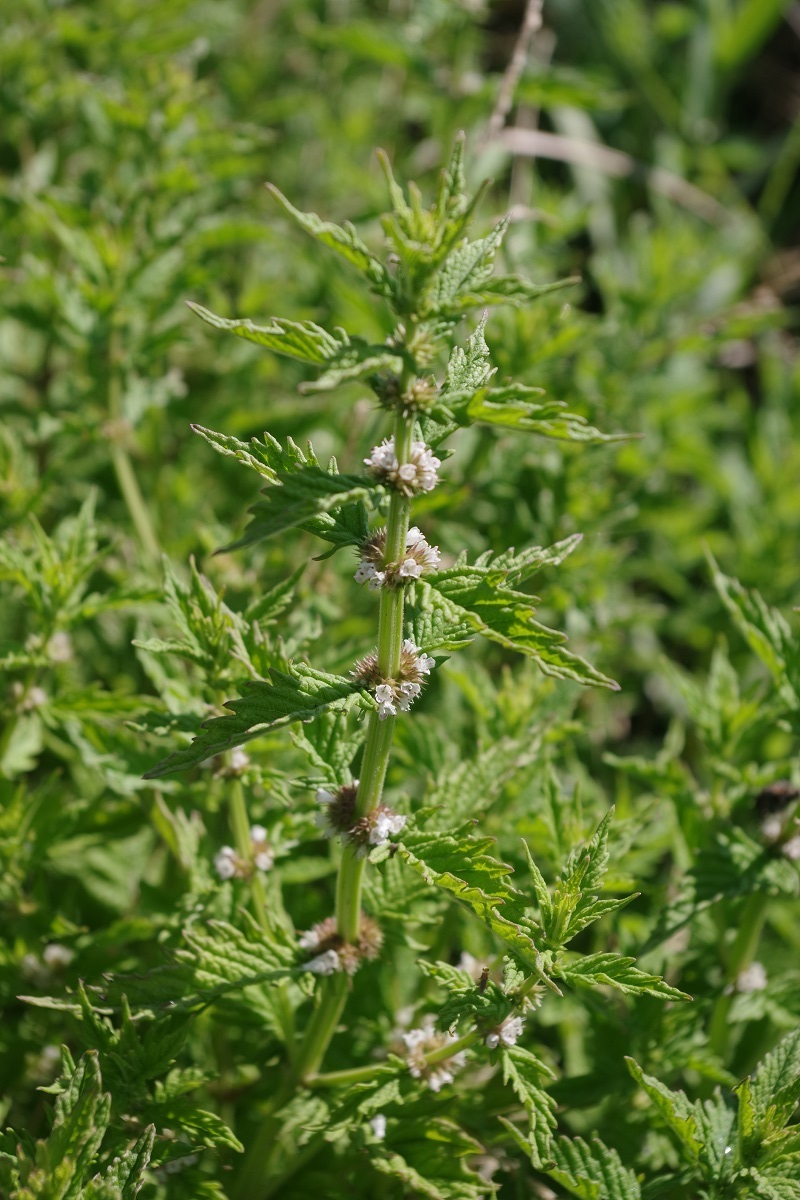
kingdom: Plantae
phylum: Tracheophyta
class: Magnoliopsida
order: Lamiales
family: Lamiaceae
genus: Lycopus
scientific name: Lycopus europaeus
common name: European bugleweed
